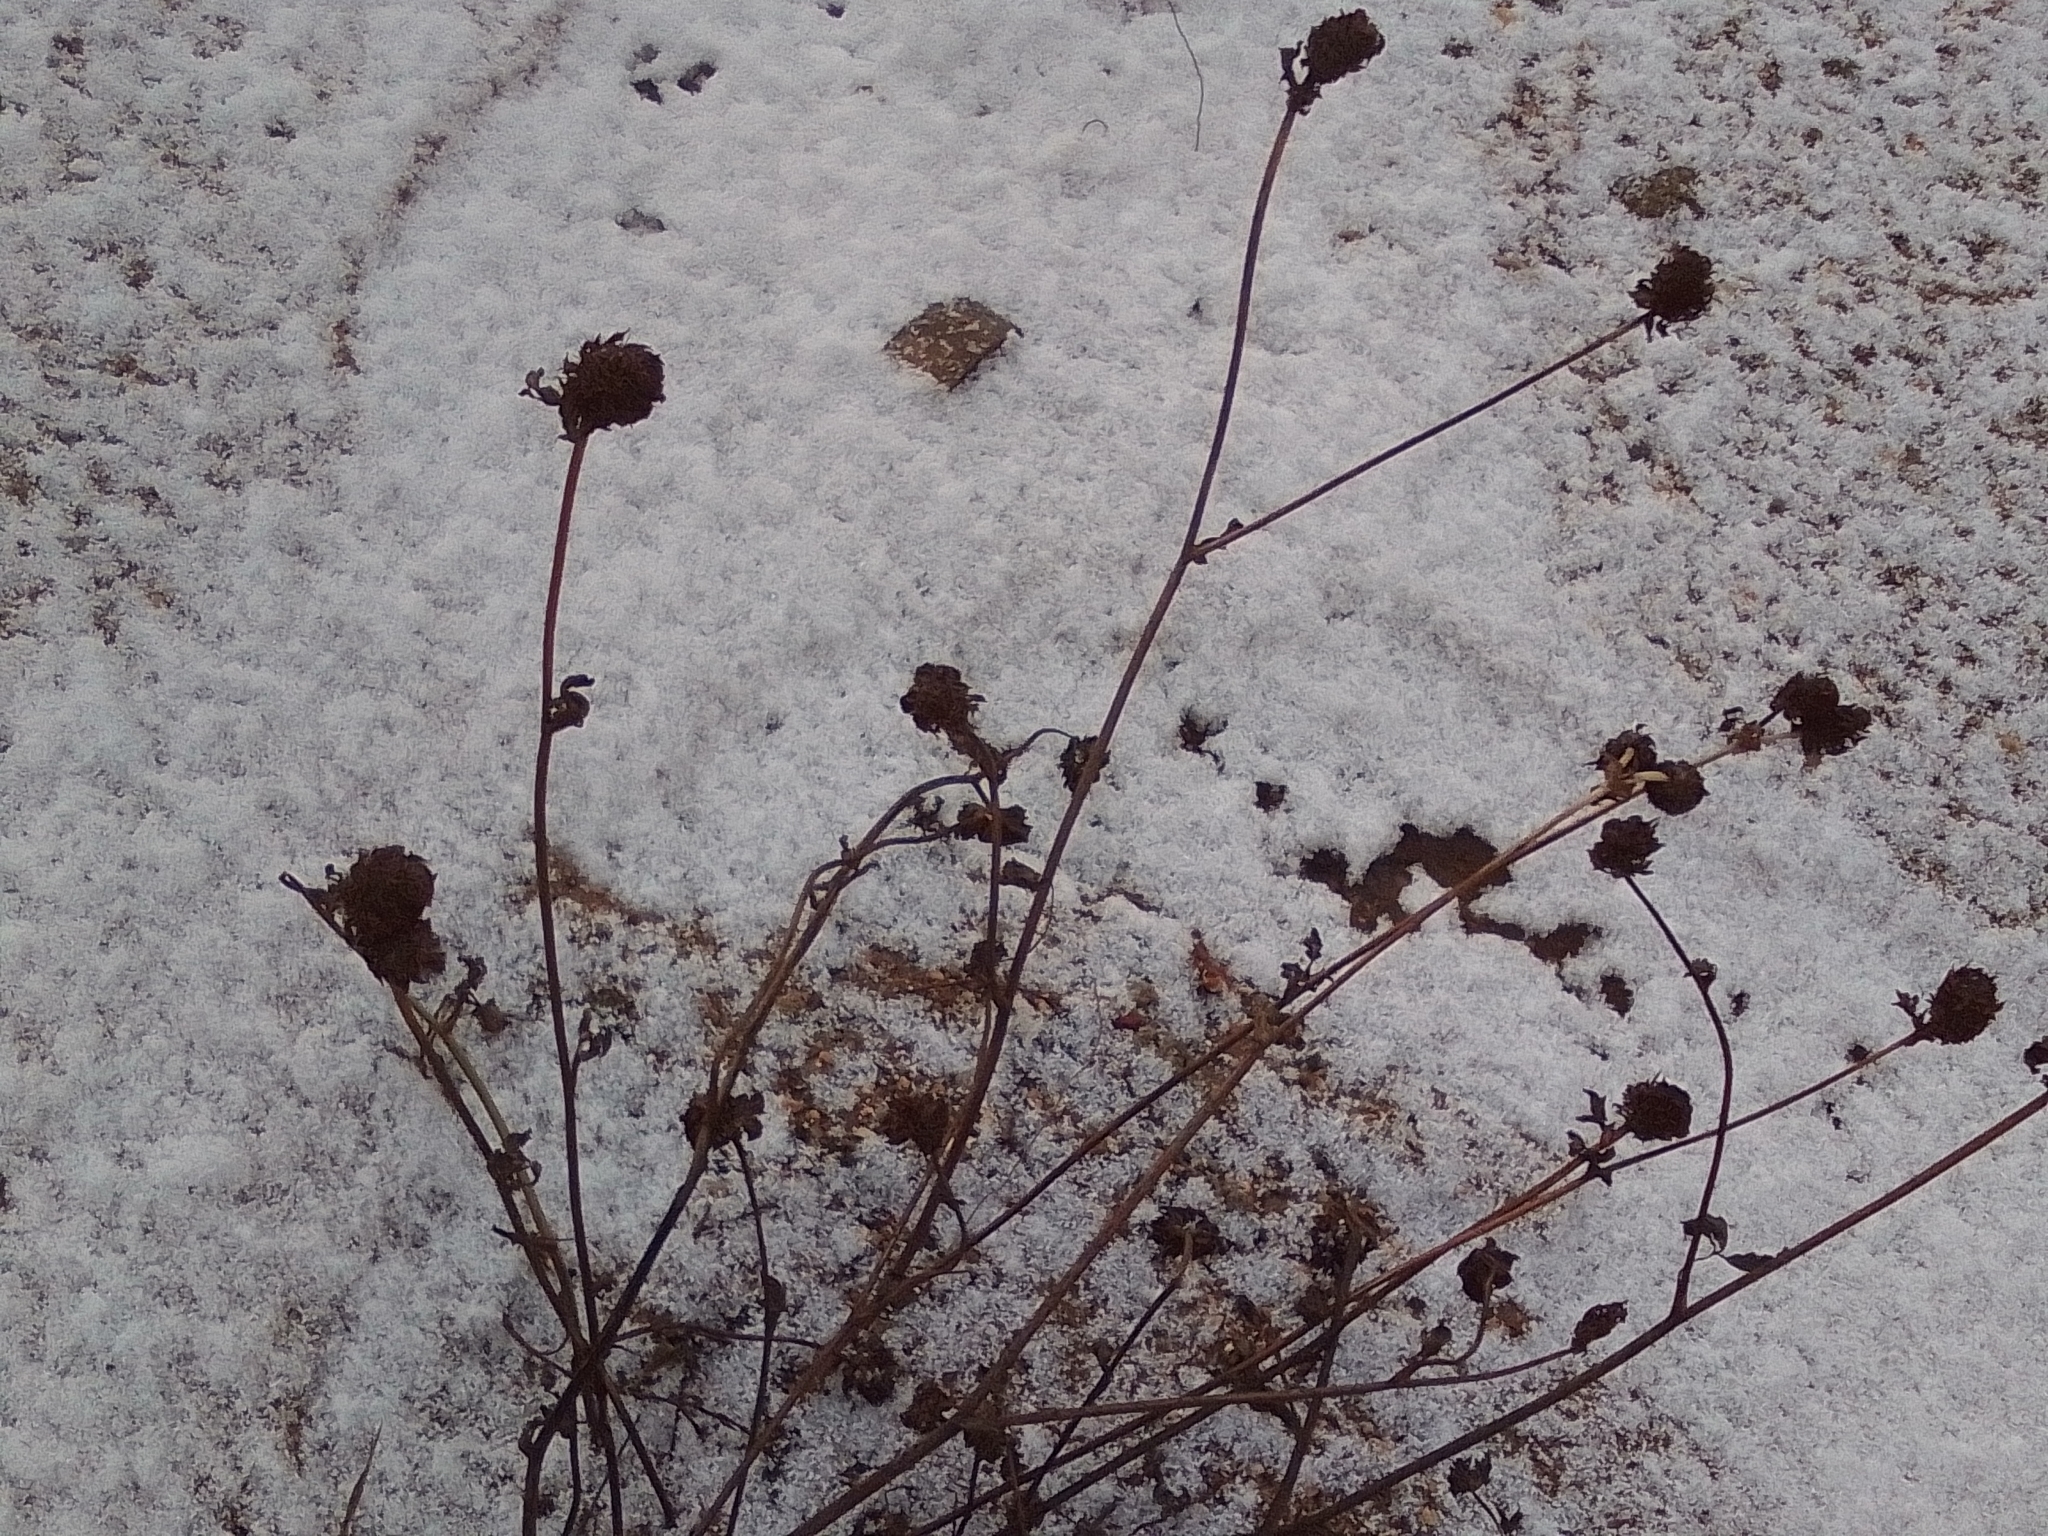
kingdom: Plantae
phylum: Tracheophyta
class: Magnoliopsida
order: Fabales
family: Fabaceae
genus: Trifolium
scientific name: Trifolium pratense
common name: Red clover
